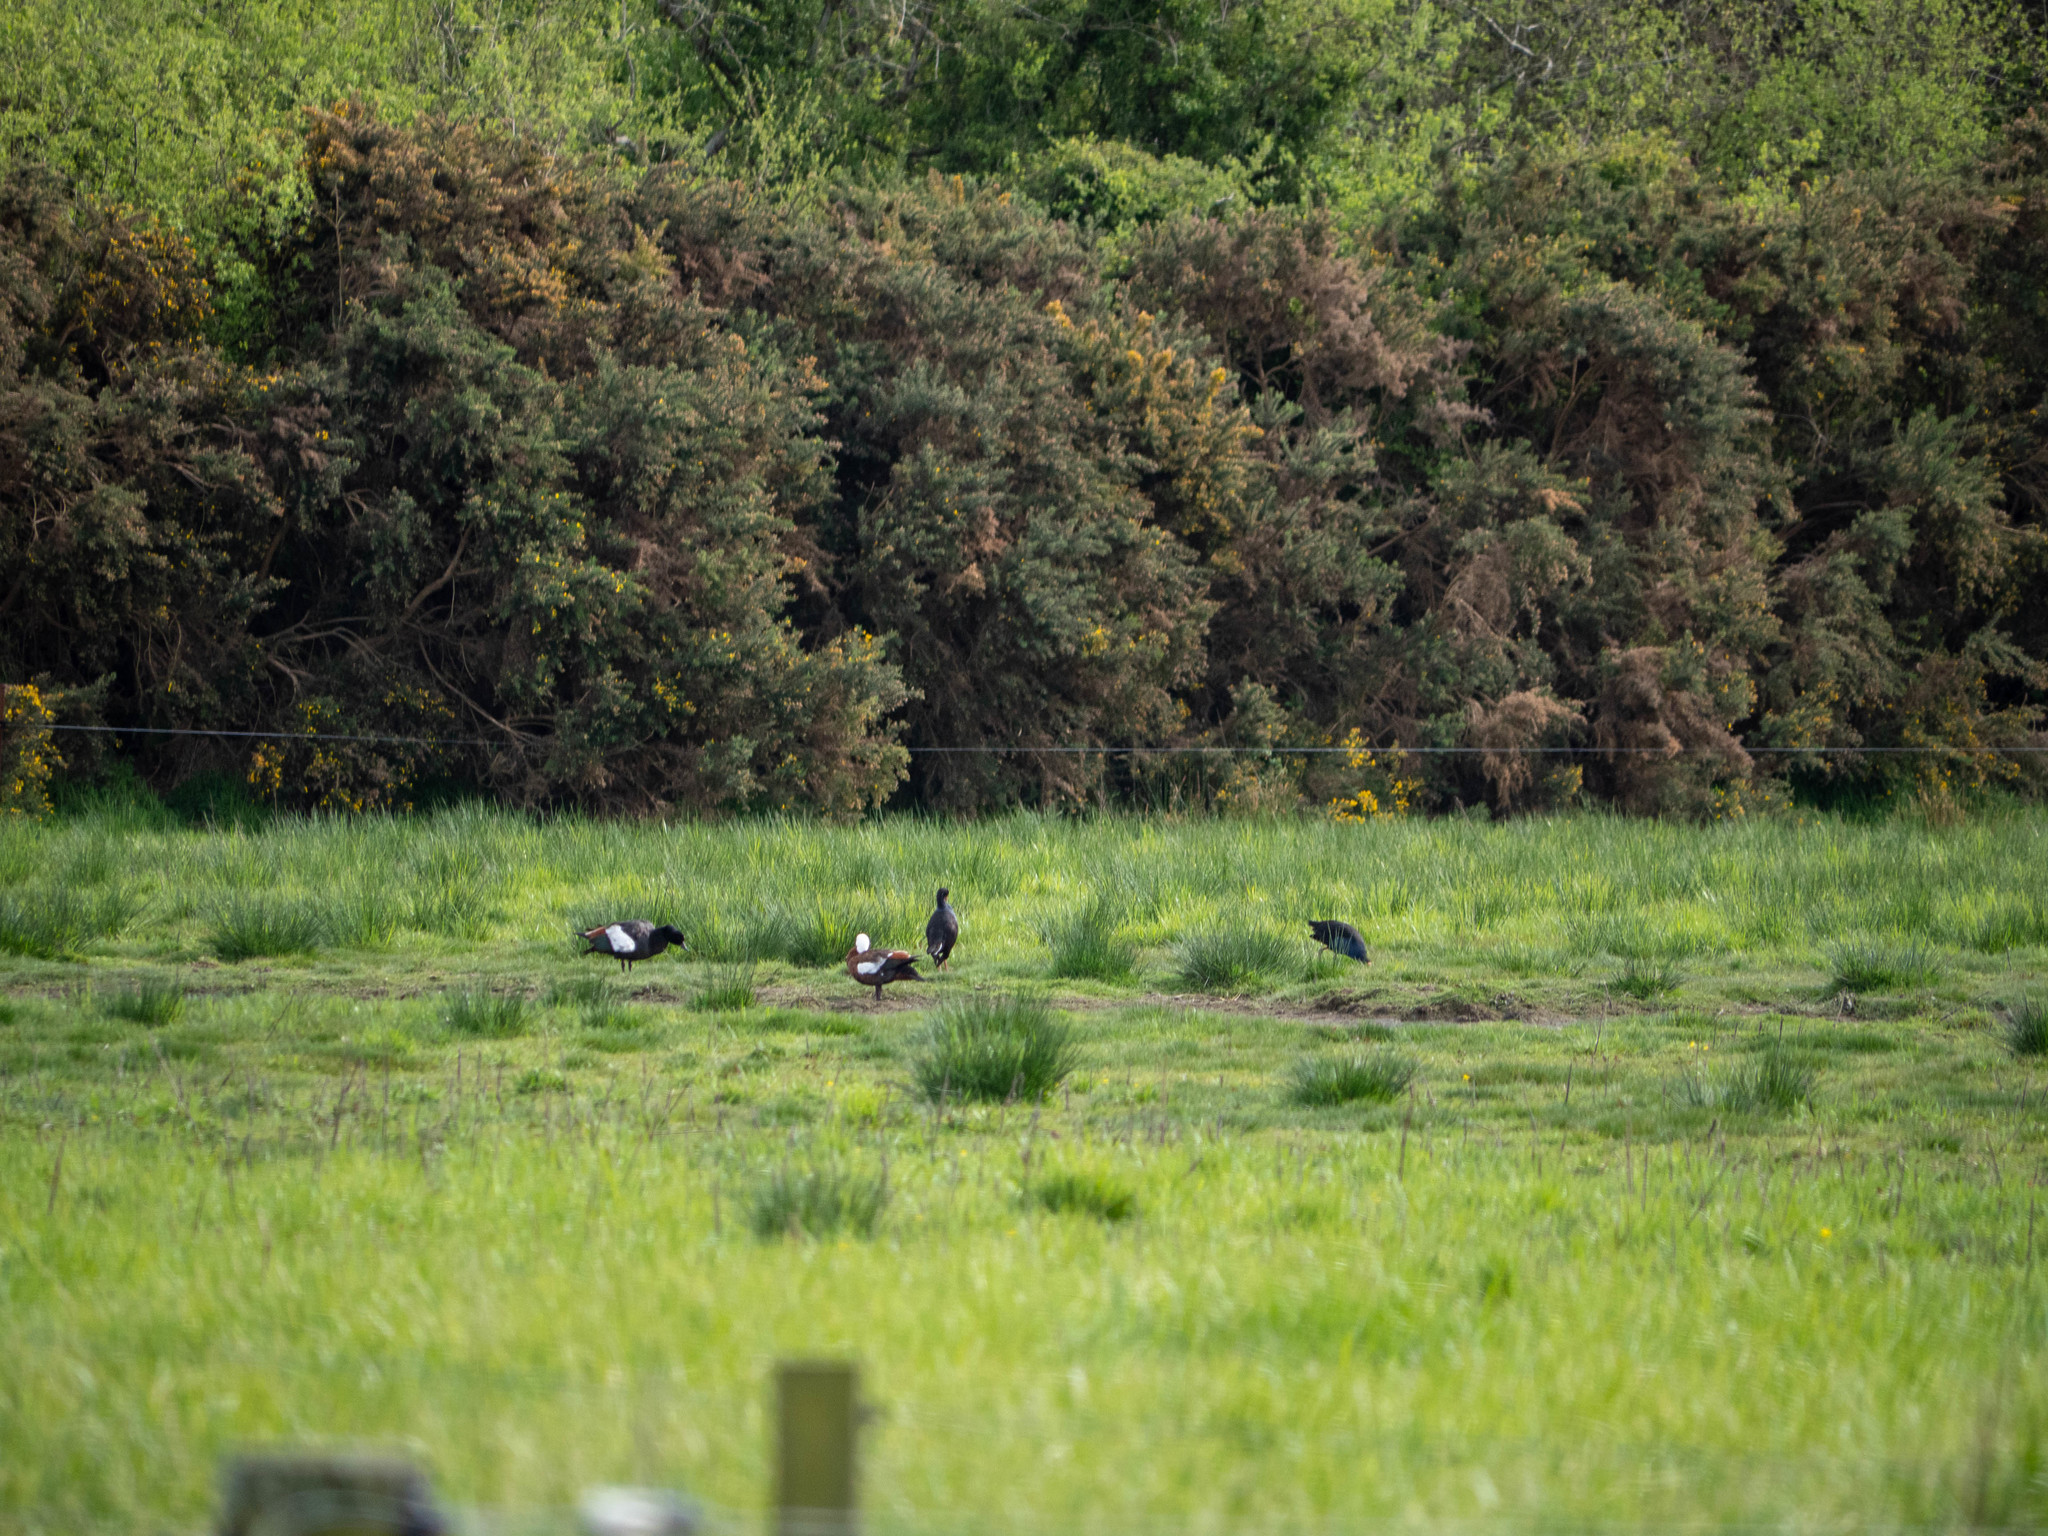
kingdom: Animalia
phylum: Chordata
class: Aves
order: Anseriformes
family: Anatidae
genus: Tadorna
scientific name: Tadorna variegata
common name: Paradise shelduck
